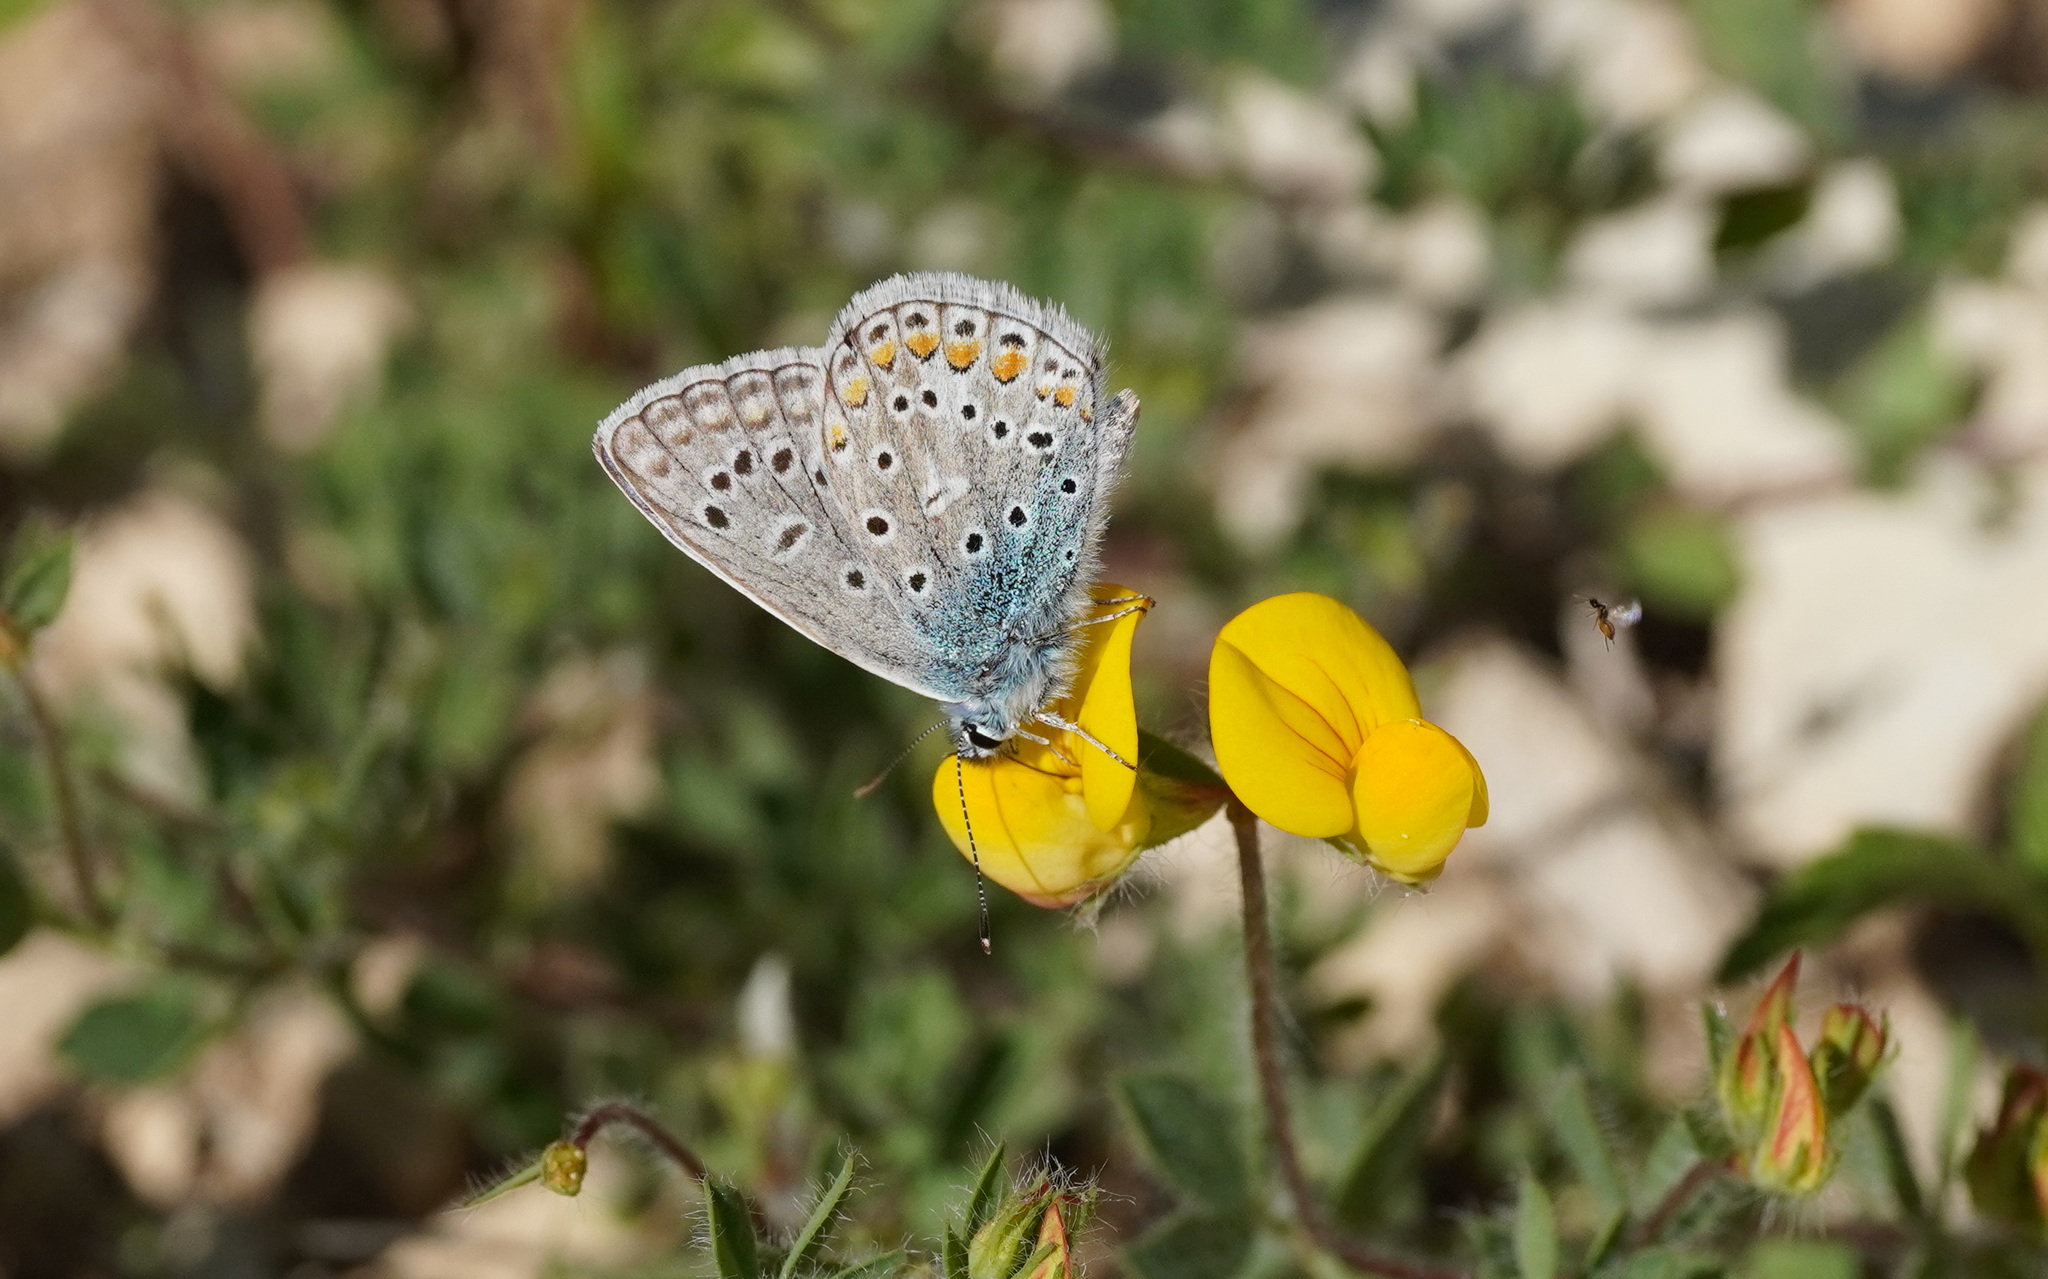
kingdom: Animalia
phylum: Arthropoda
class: Insecta
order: Lepidoptera
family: Lycaenidae
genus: Polyommatus
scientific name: Polyommatus icarus
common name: Common blue
